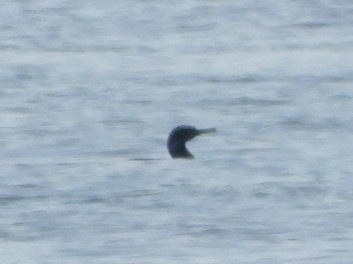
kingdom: Animalia
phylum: Chordata
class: Aves
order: Suliformes
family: Phalacrocoracidae
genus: Urile
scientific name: Urile penicillatus
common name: Brandt's cormorant
